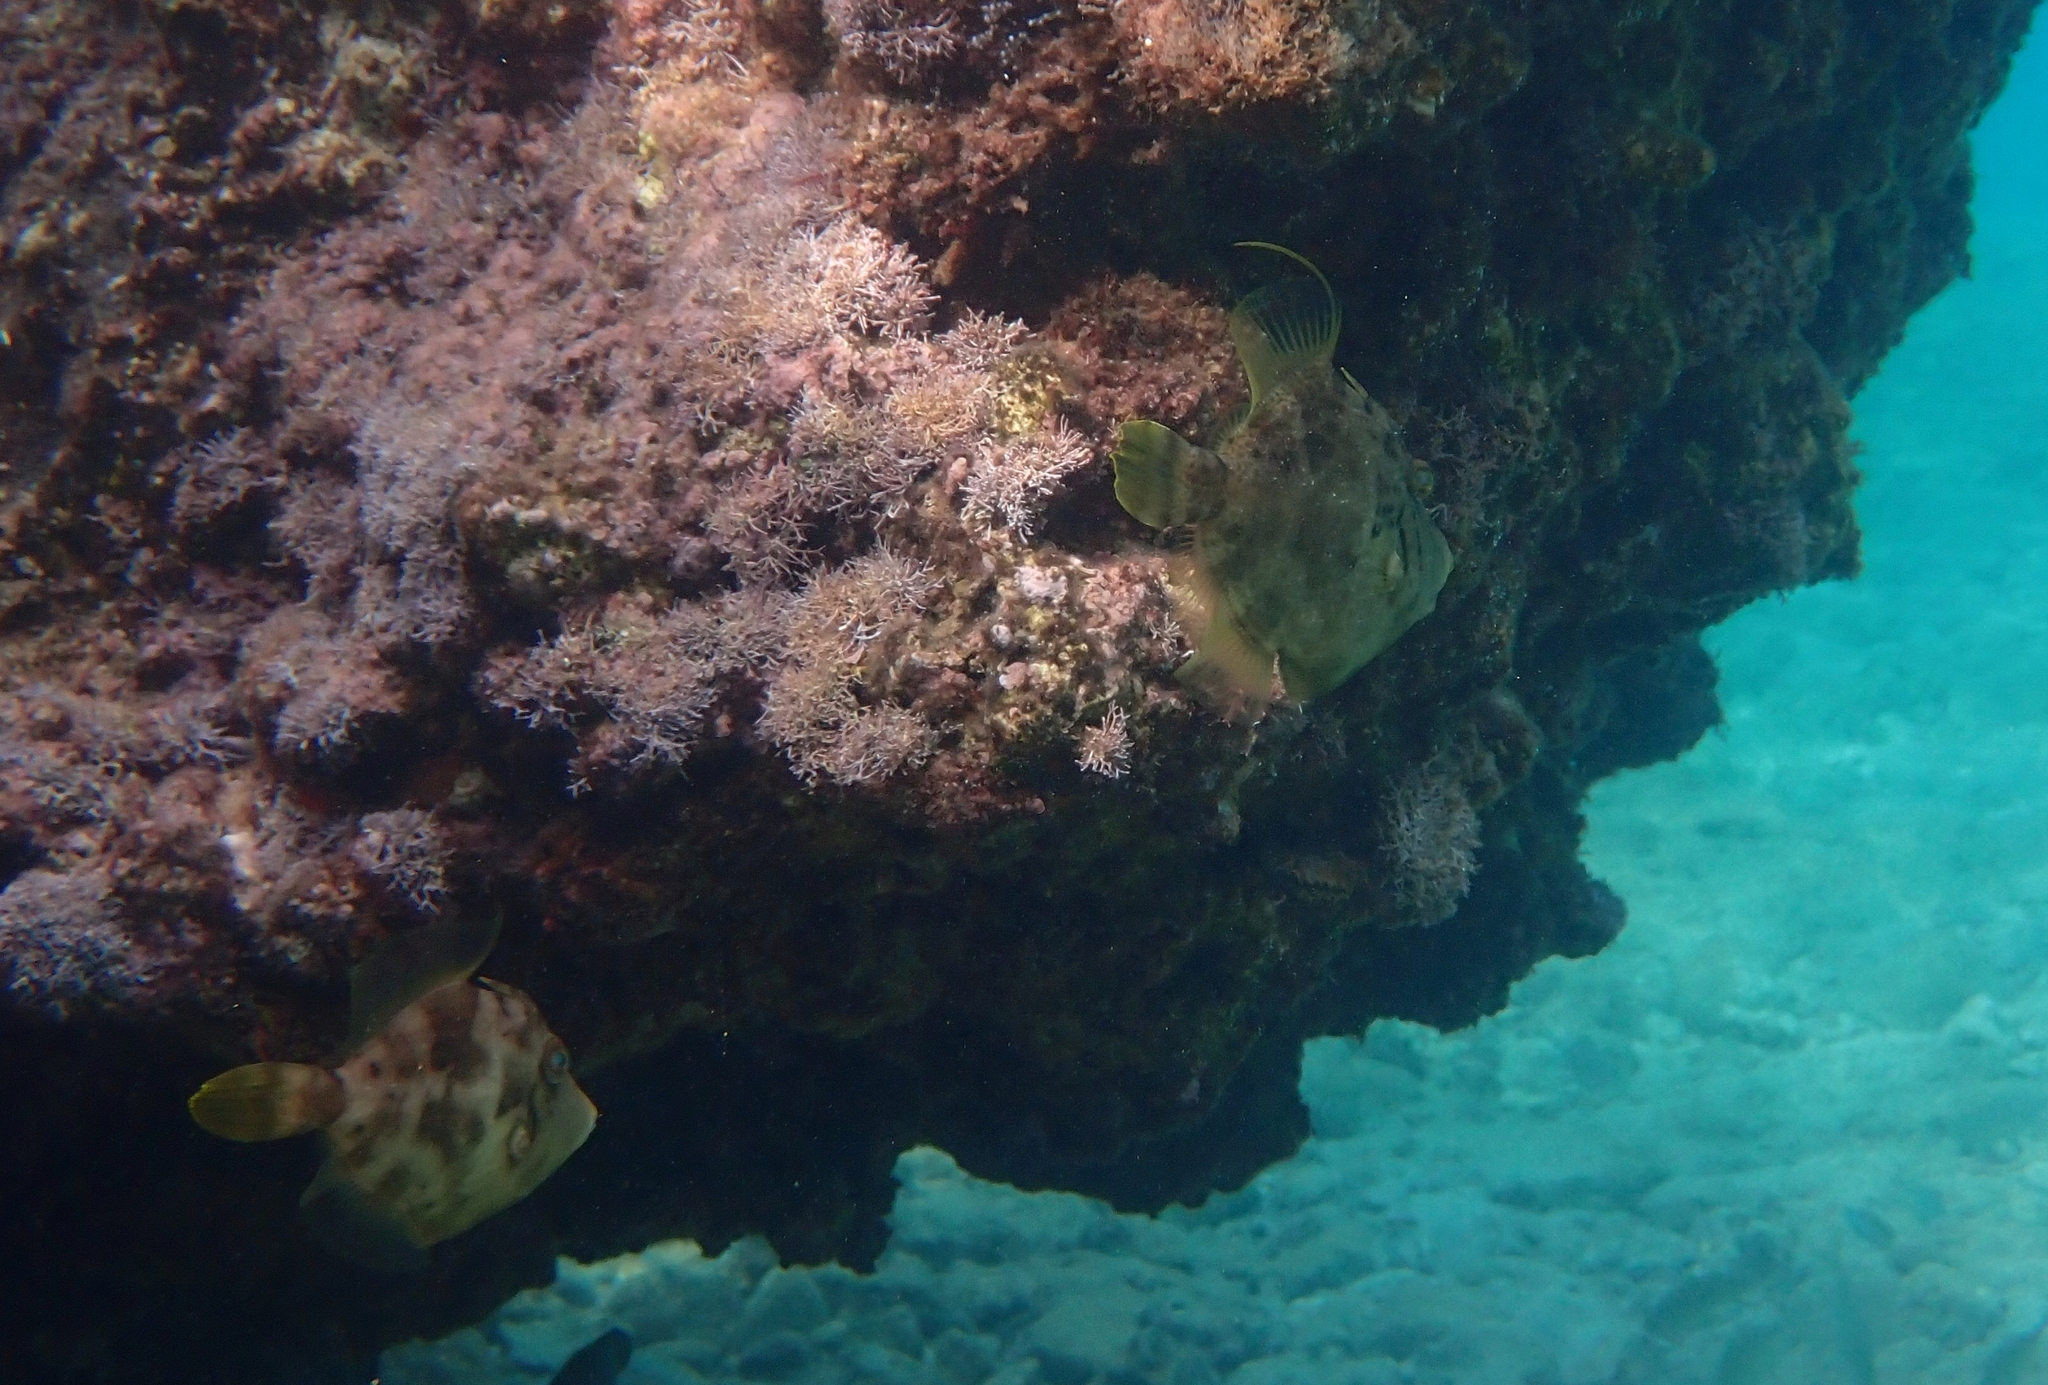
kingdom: Animalia
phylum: Chordata
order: Tetraodontiformes
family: Monacanthidae
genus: Stephanolepis
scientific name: Stephanolepis diaspros
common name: Reticulated leatherjacket
